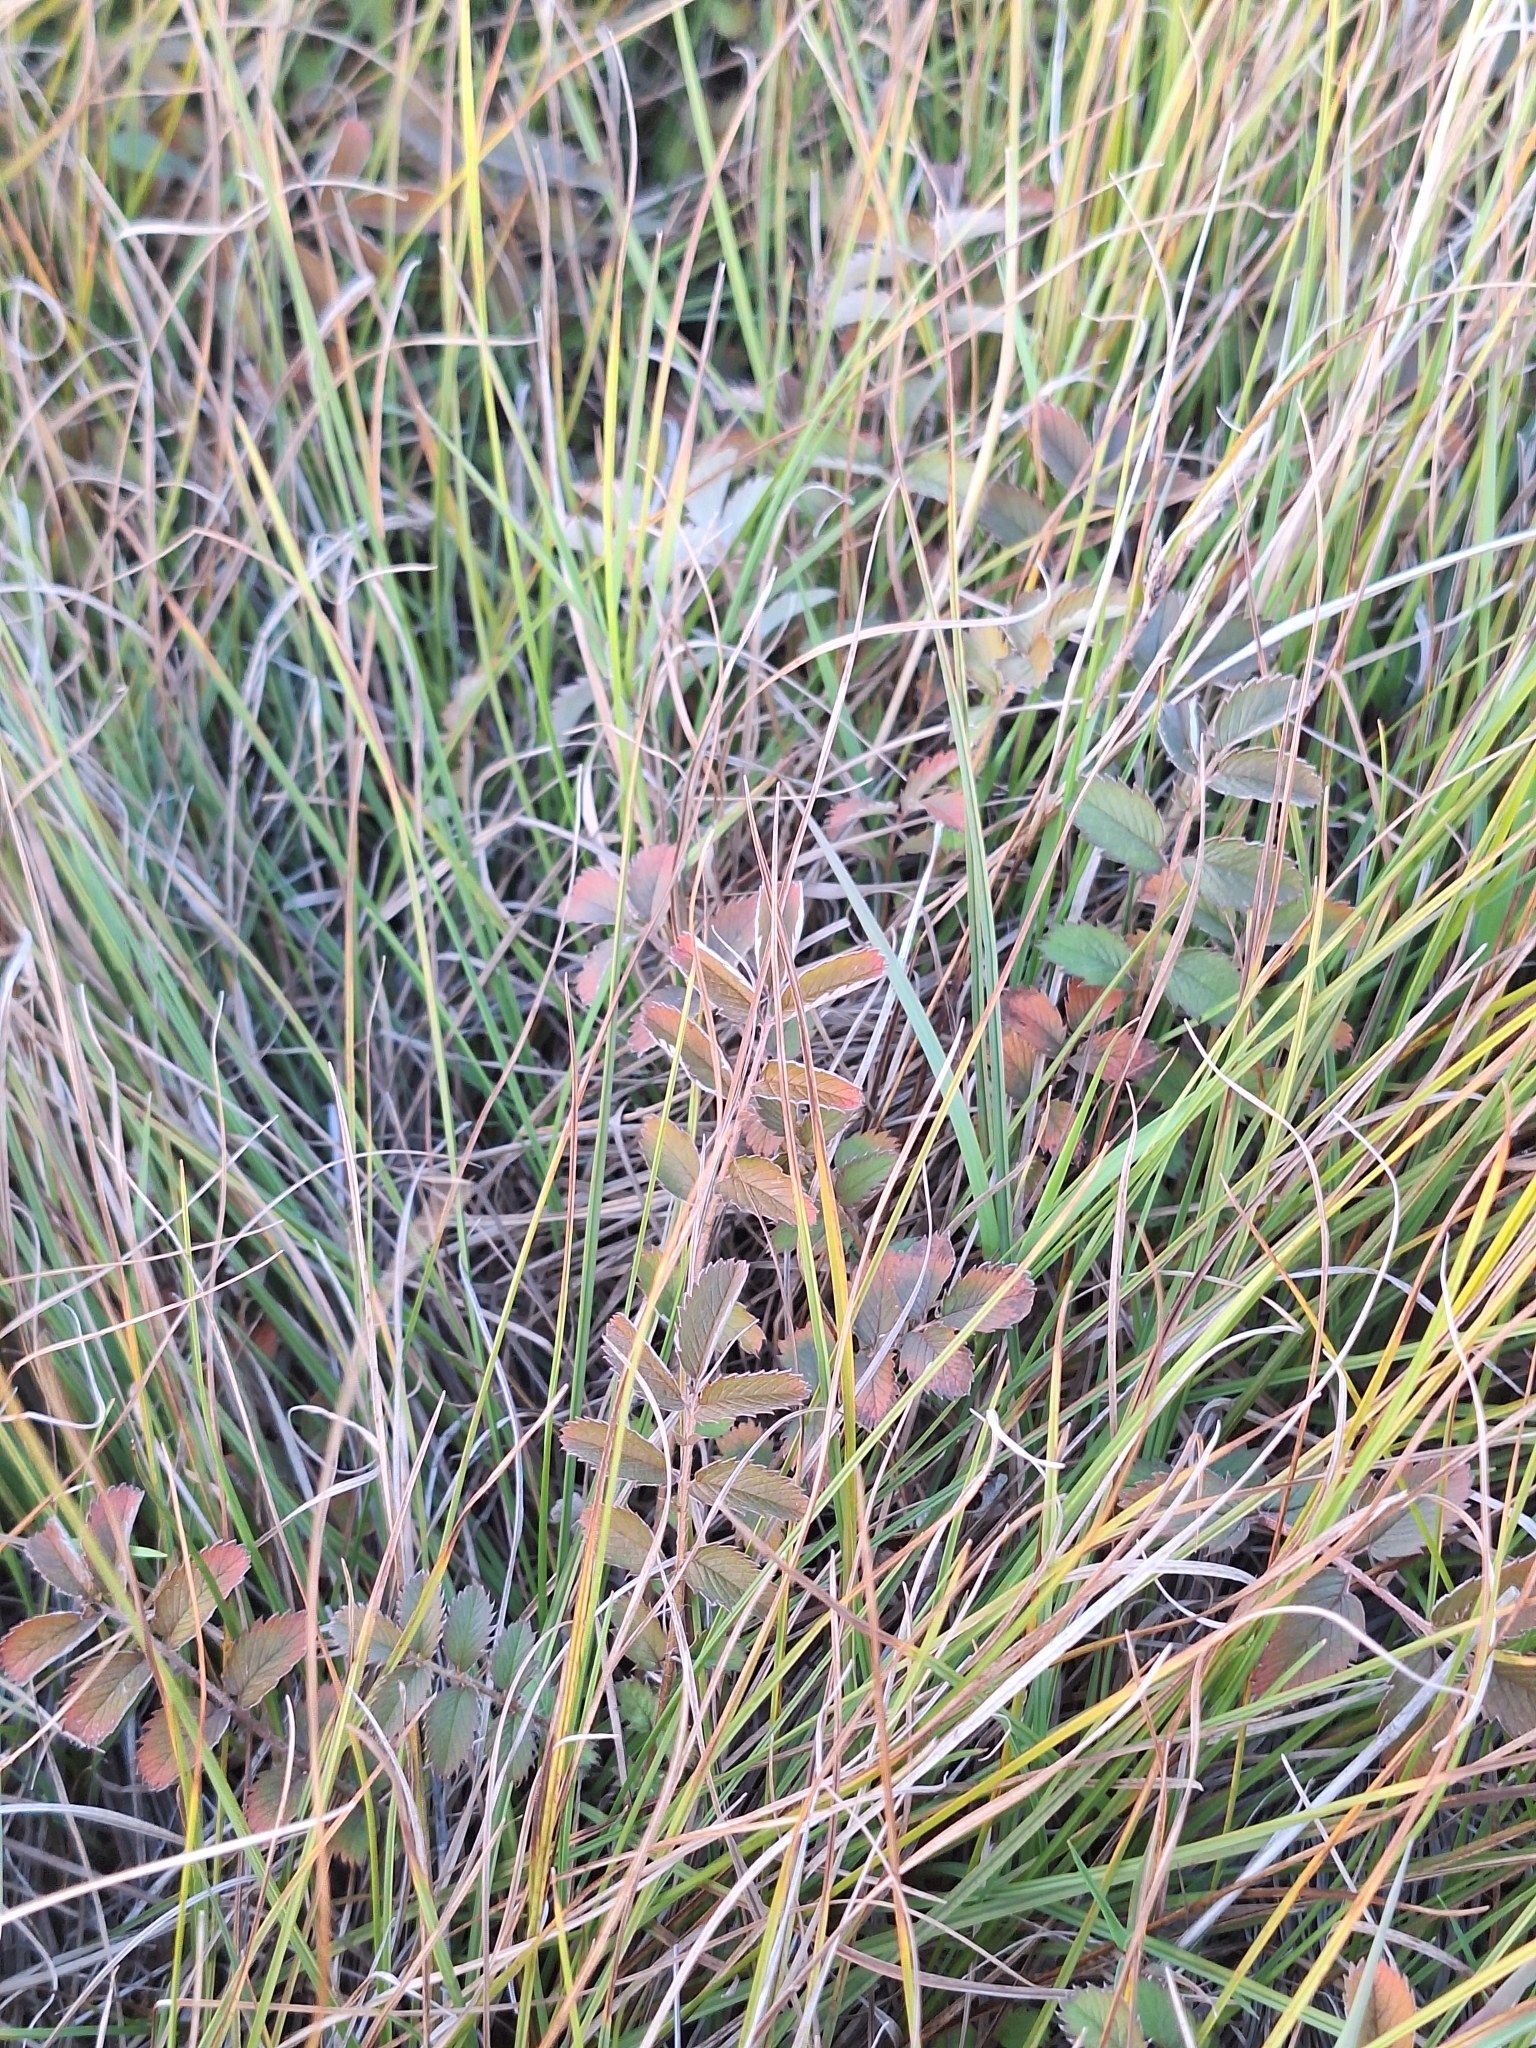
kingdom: Plantae
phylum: Tracheophyta
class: Magnoliopsida
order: Rosales
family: Rosaceae
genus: Argentina
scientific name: Argentina anserinoides
